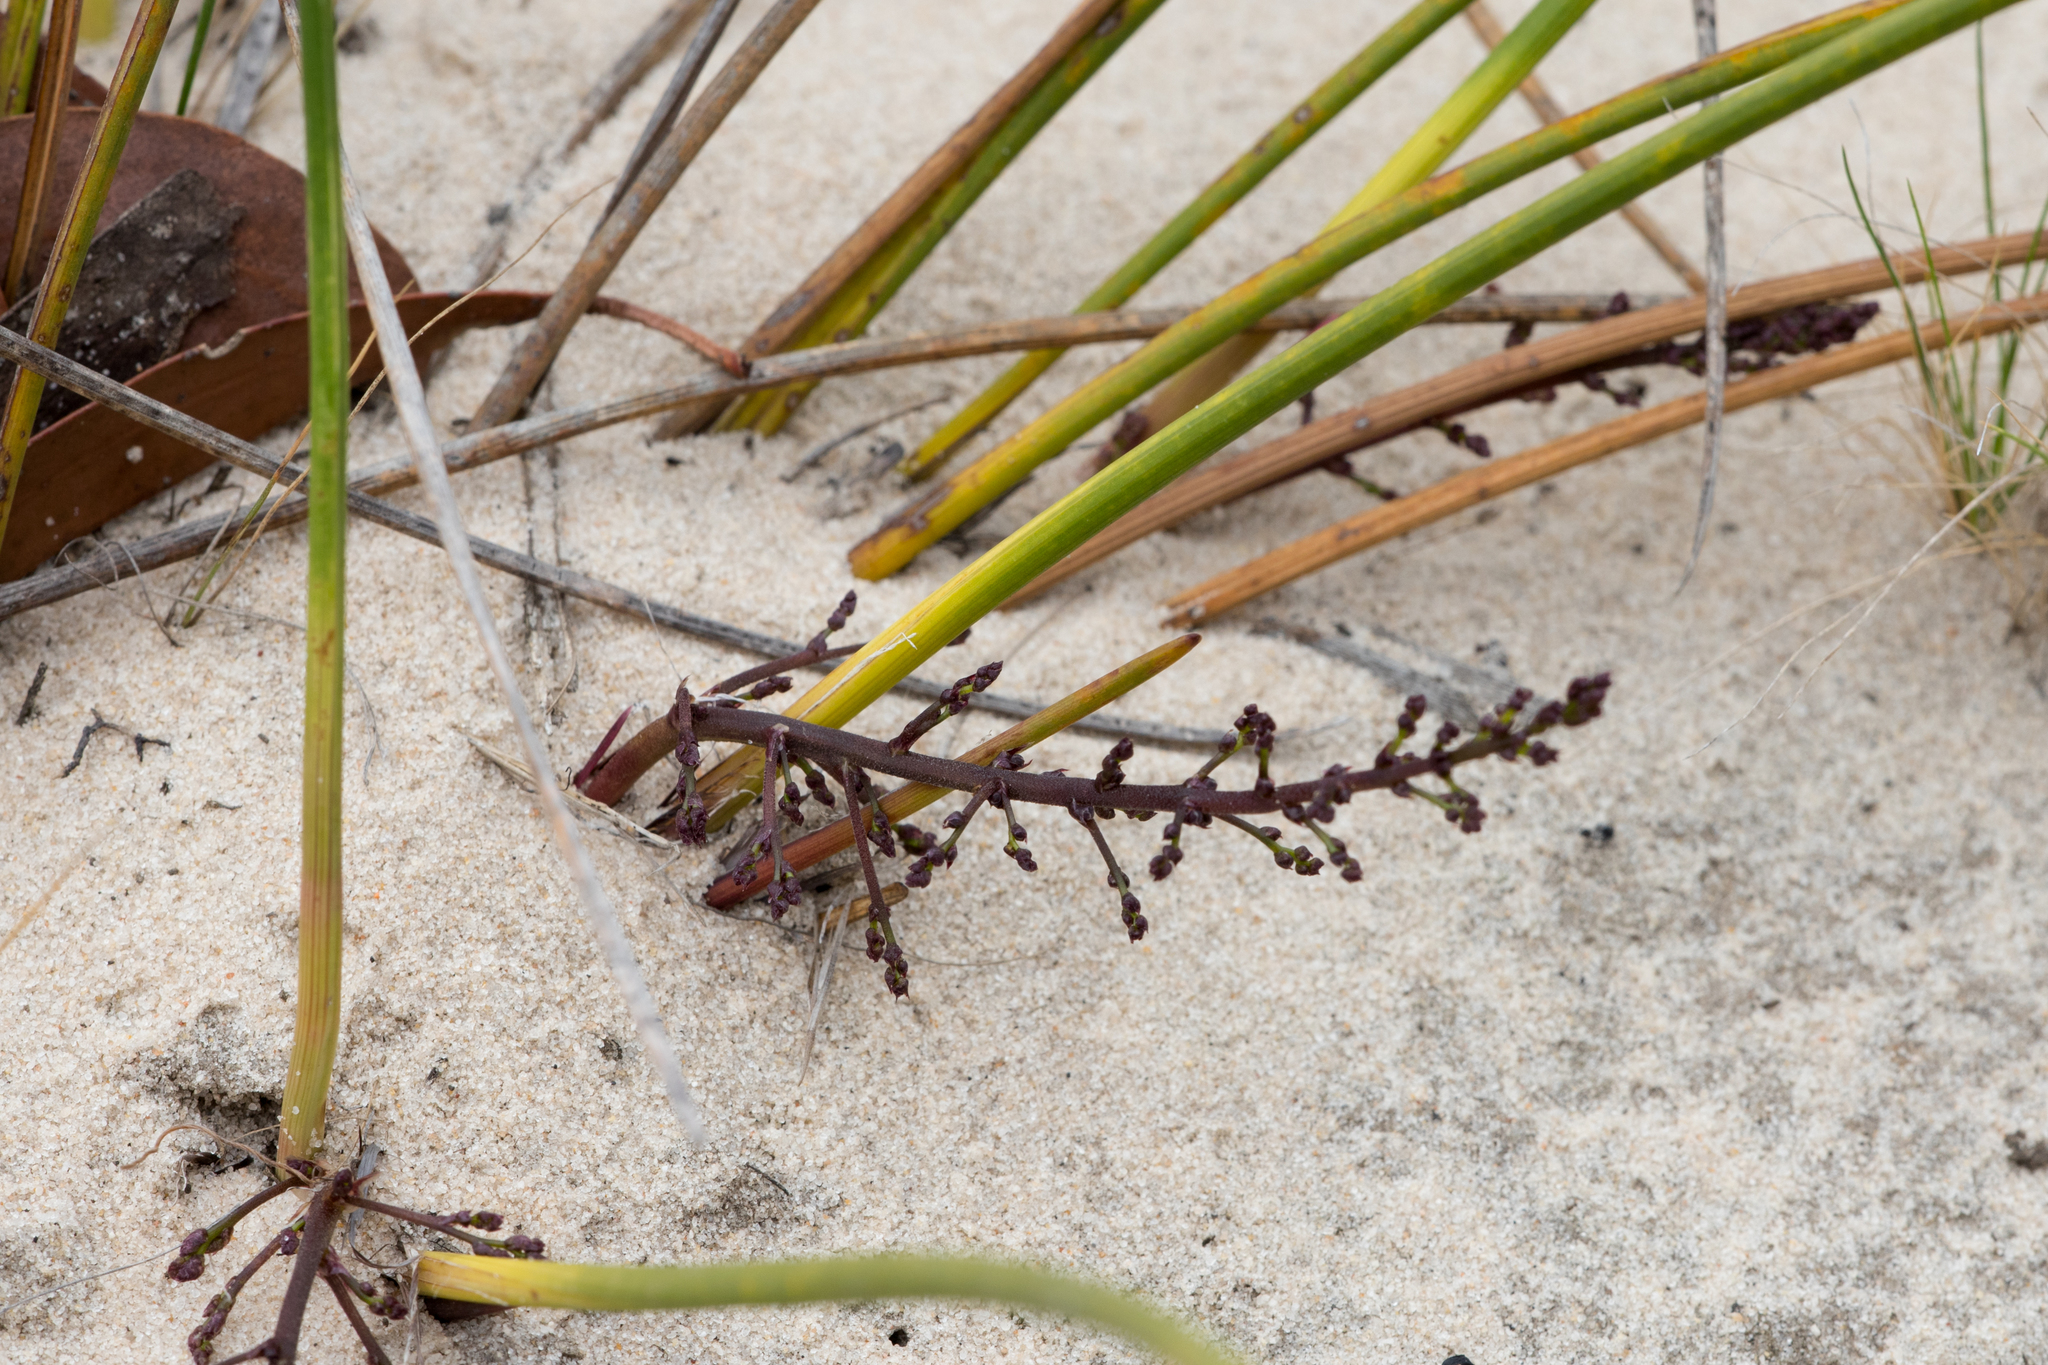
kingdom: Plantae
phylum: Tracheophyta
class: Liliopsida
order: Asparagales
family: Asparagaceae
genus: Lomandra
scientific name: Lomandra micrantha
